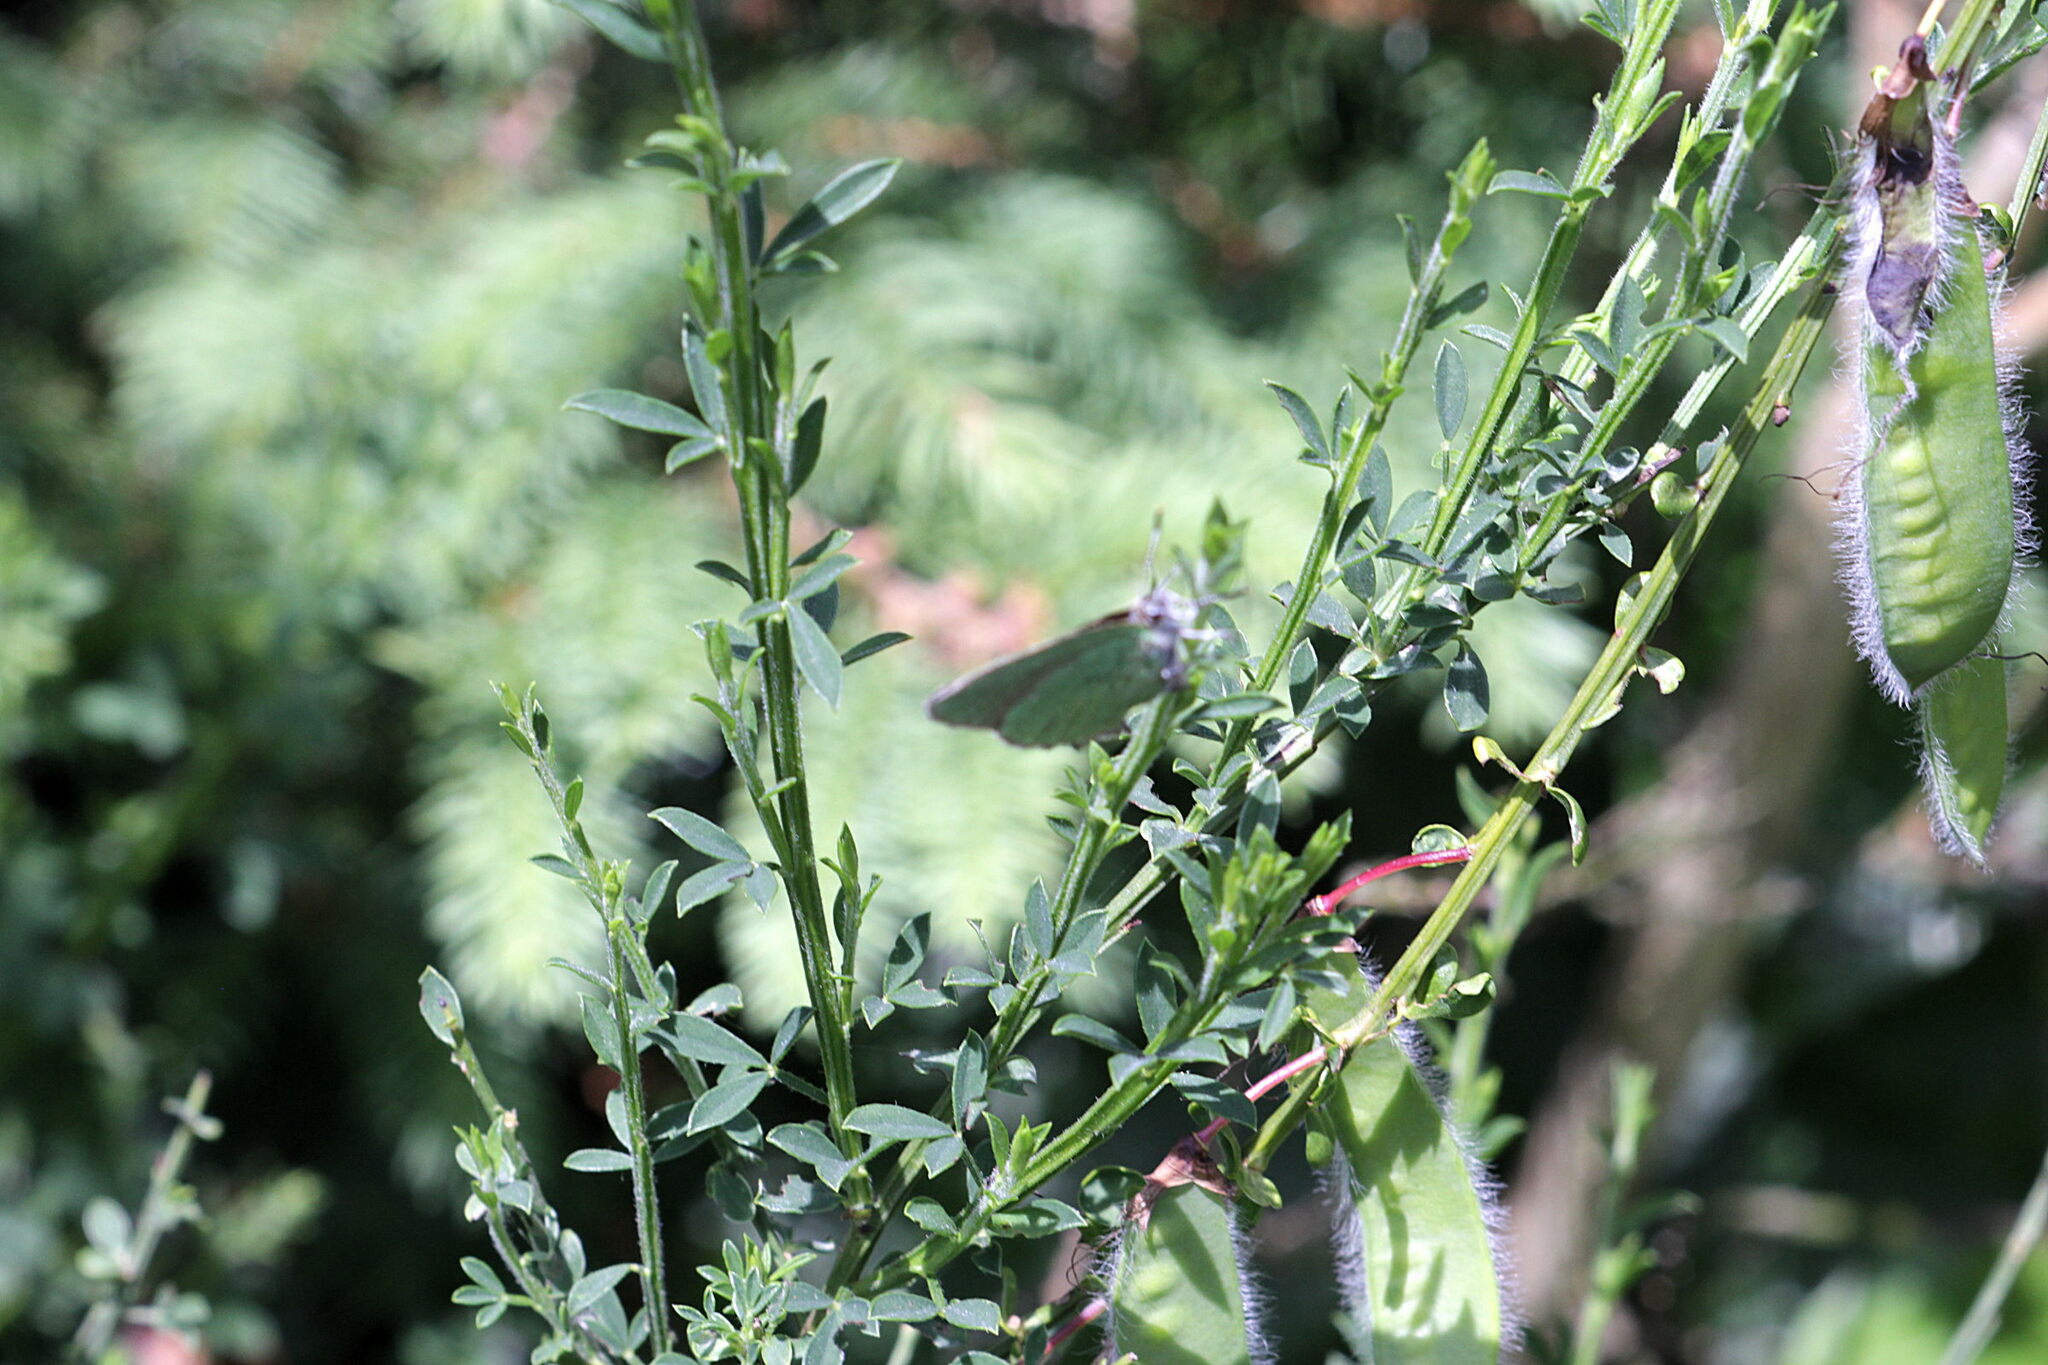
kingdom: Animalia
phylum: Arthropoda
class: Insecta
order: Lepidoptera
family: Lycaenidae
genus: Callophrys
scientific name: Callophrys rubi
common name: Green hairstreak
